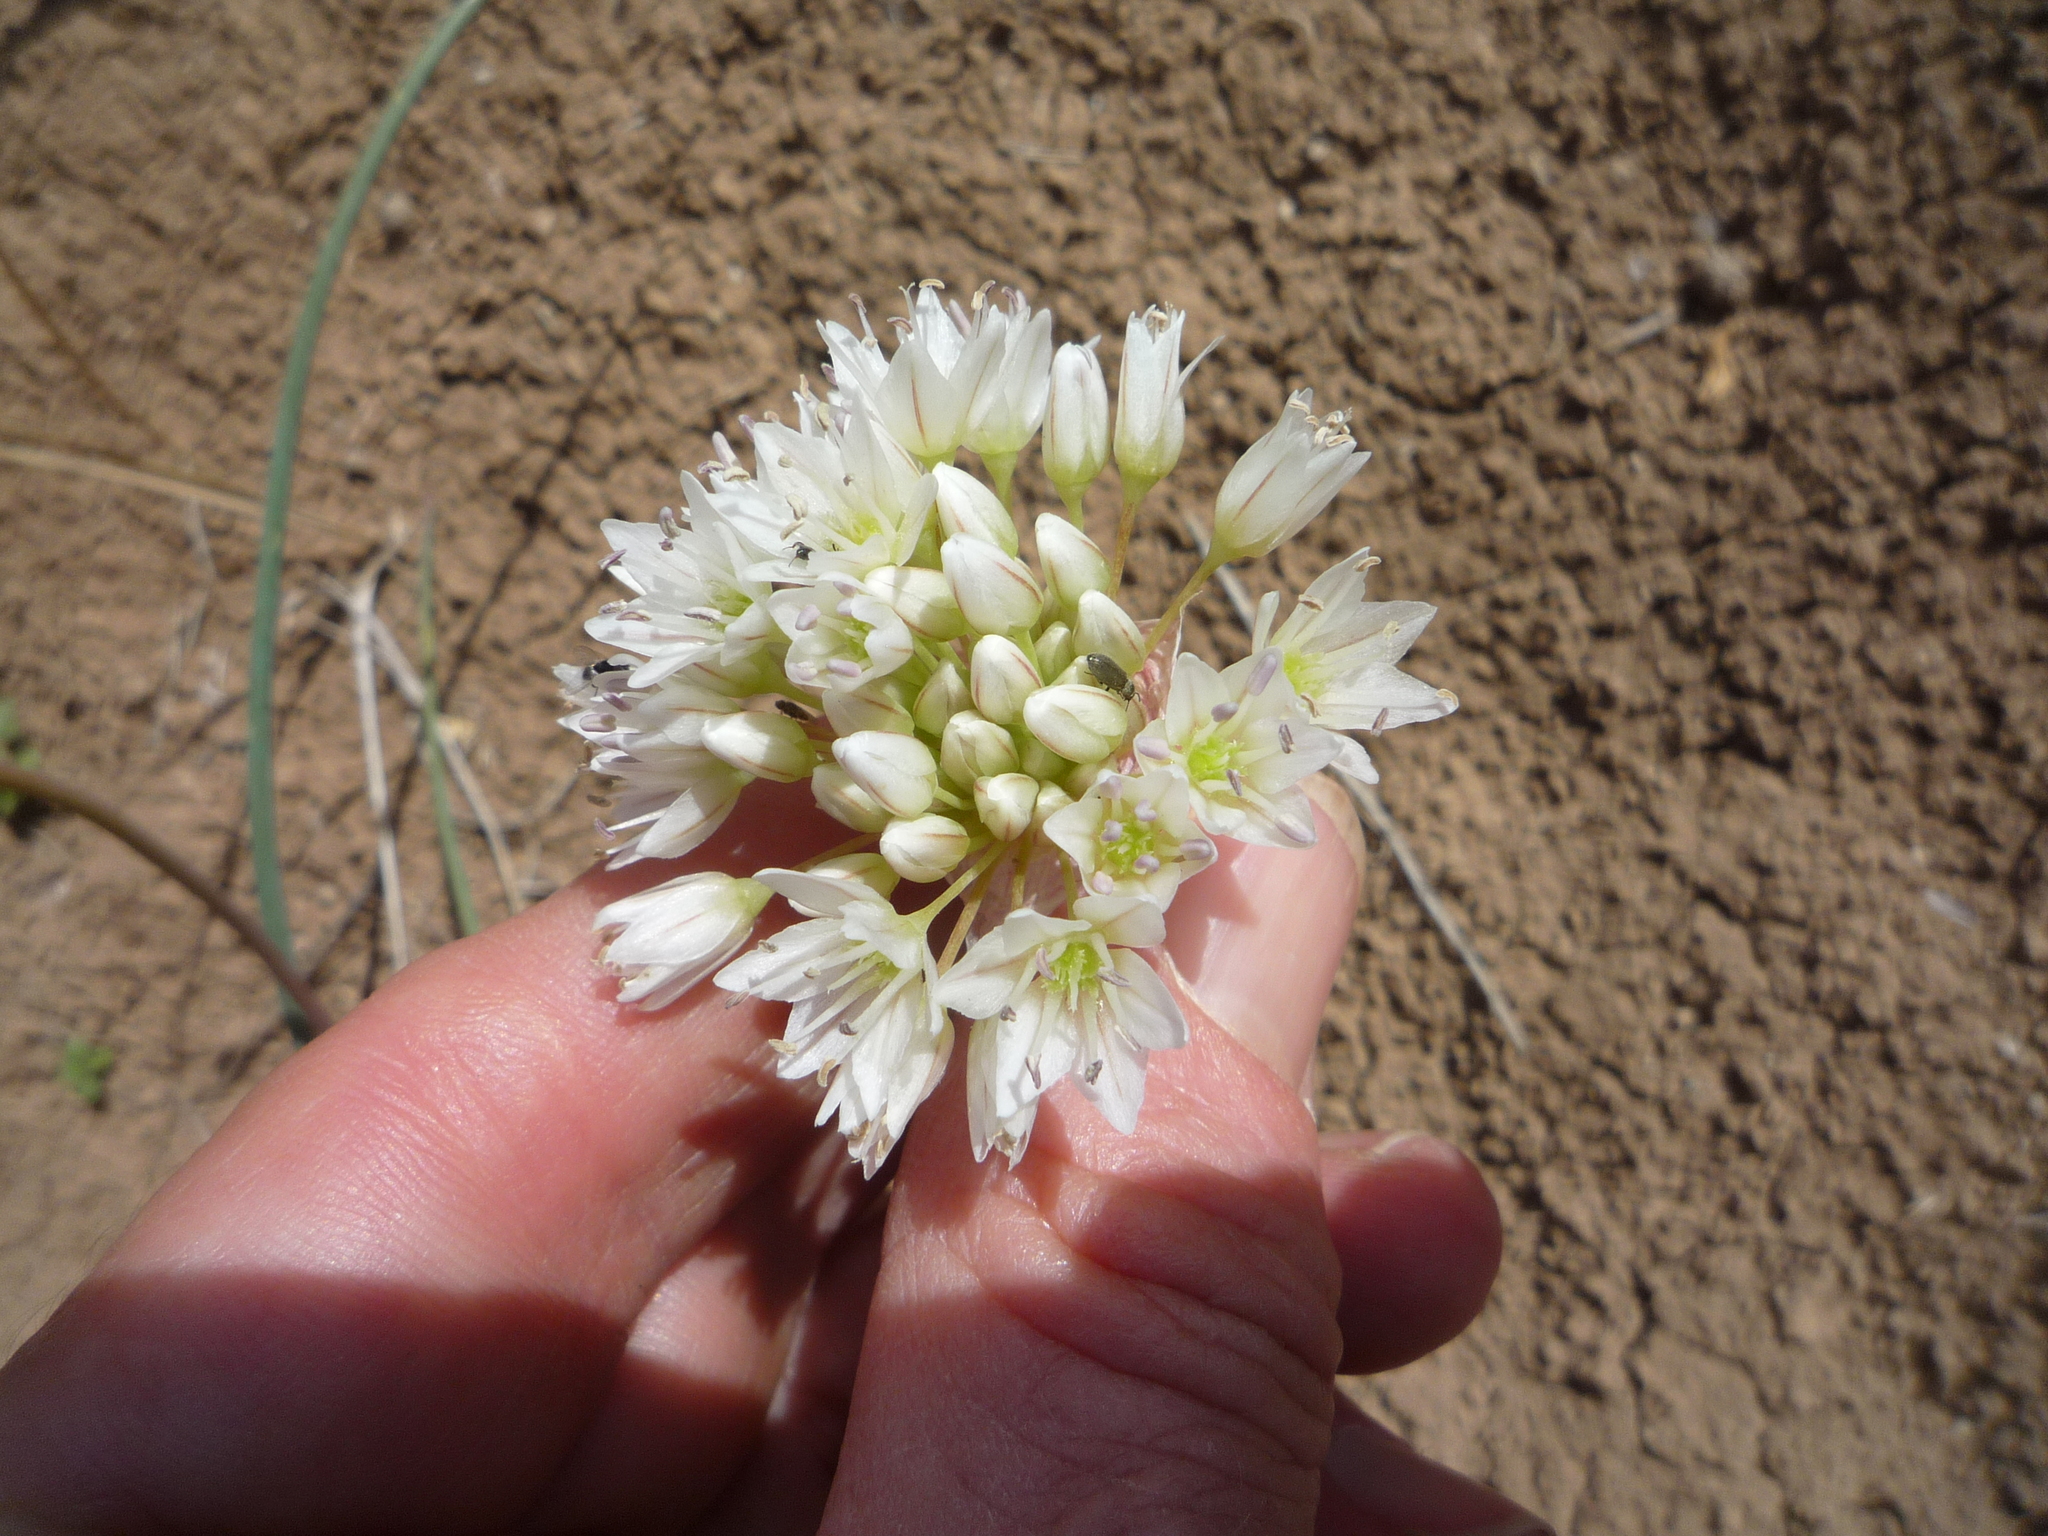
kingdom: Plantae
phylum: Tracheophyta
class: Liliopsida
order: Asparagales
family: Amaryllidaceae
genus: Allium
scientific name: Allium howellii
